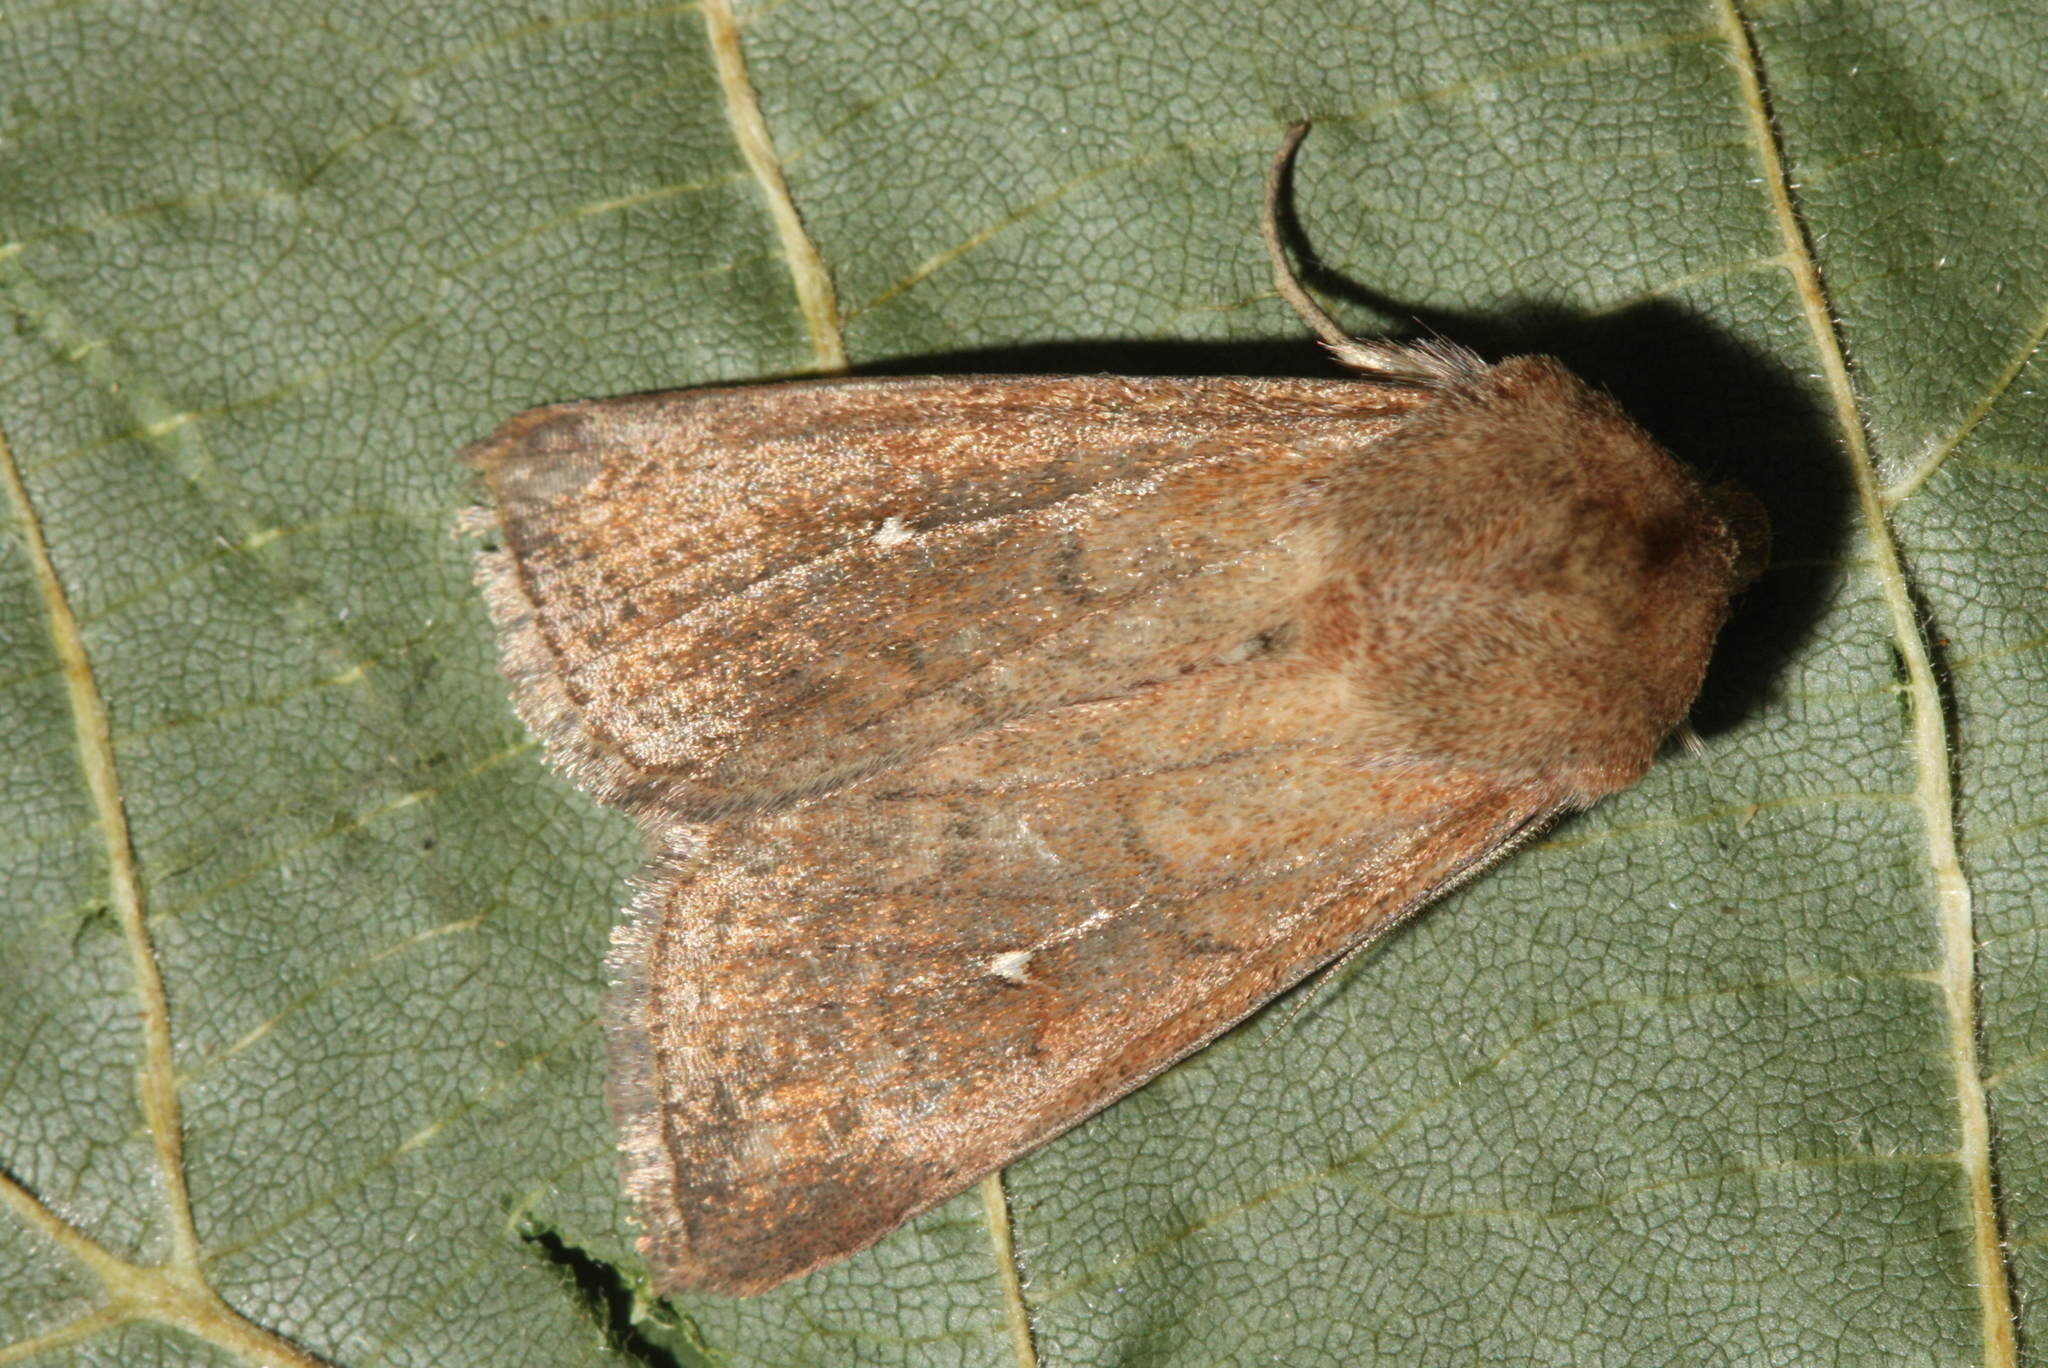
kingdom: Animalia
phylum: Arthropoda
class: Insecta
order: Lepidoptera
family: Noctuidae
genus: Mythimna
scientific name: Mythimna albipuncta
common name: White-point
